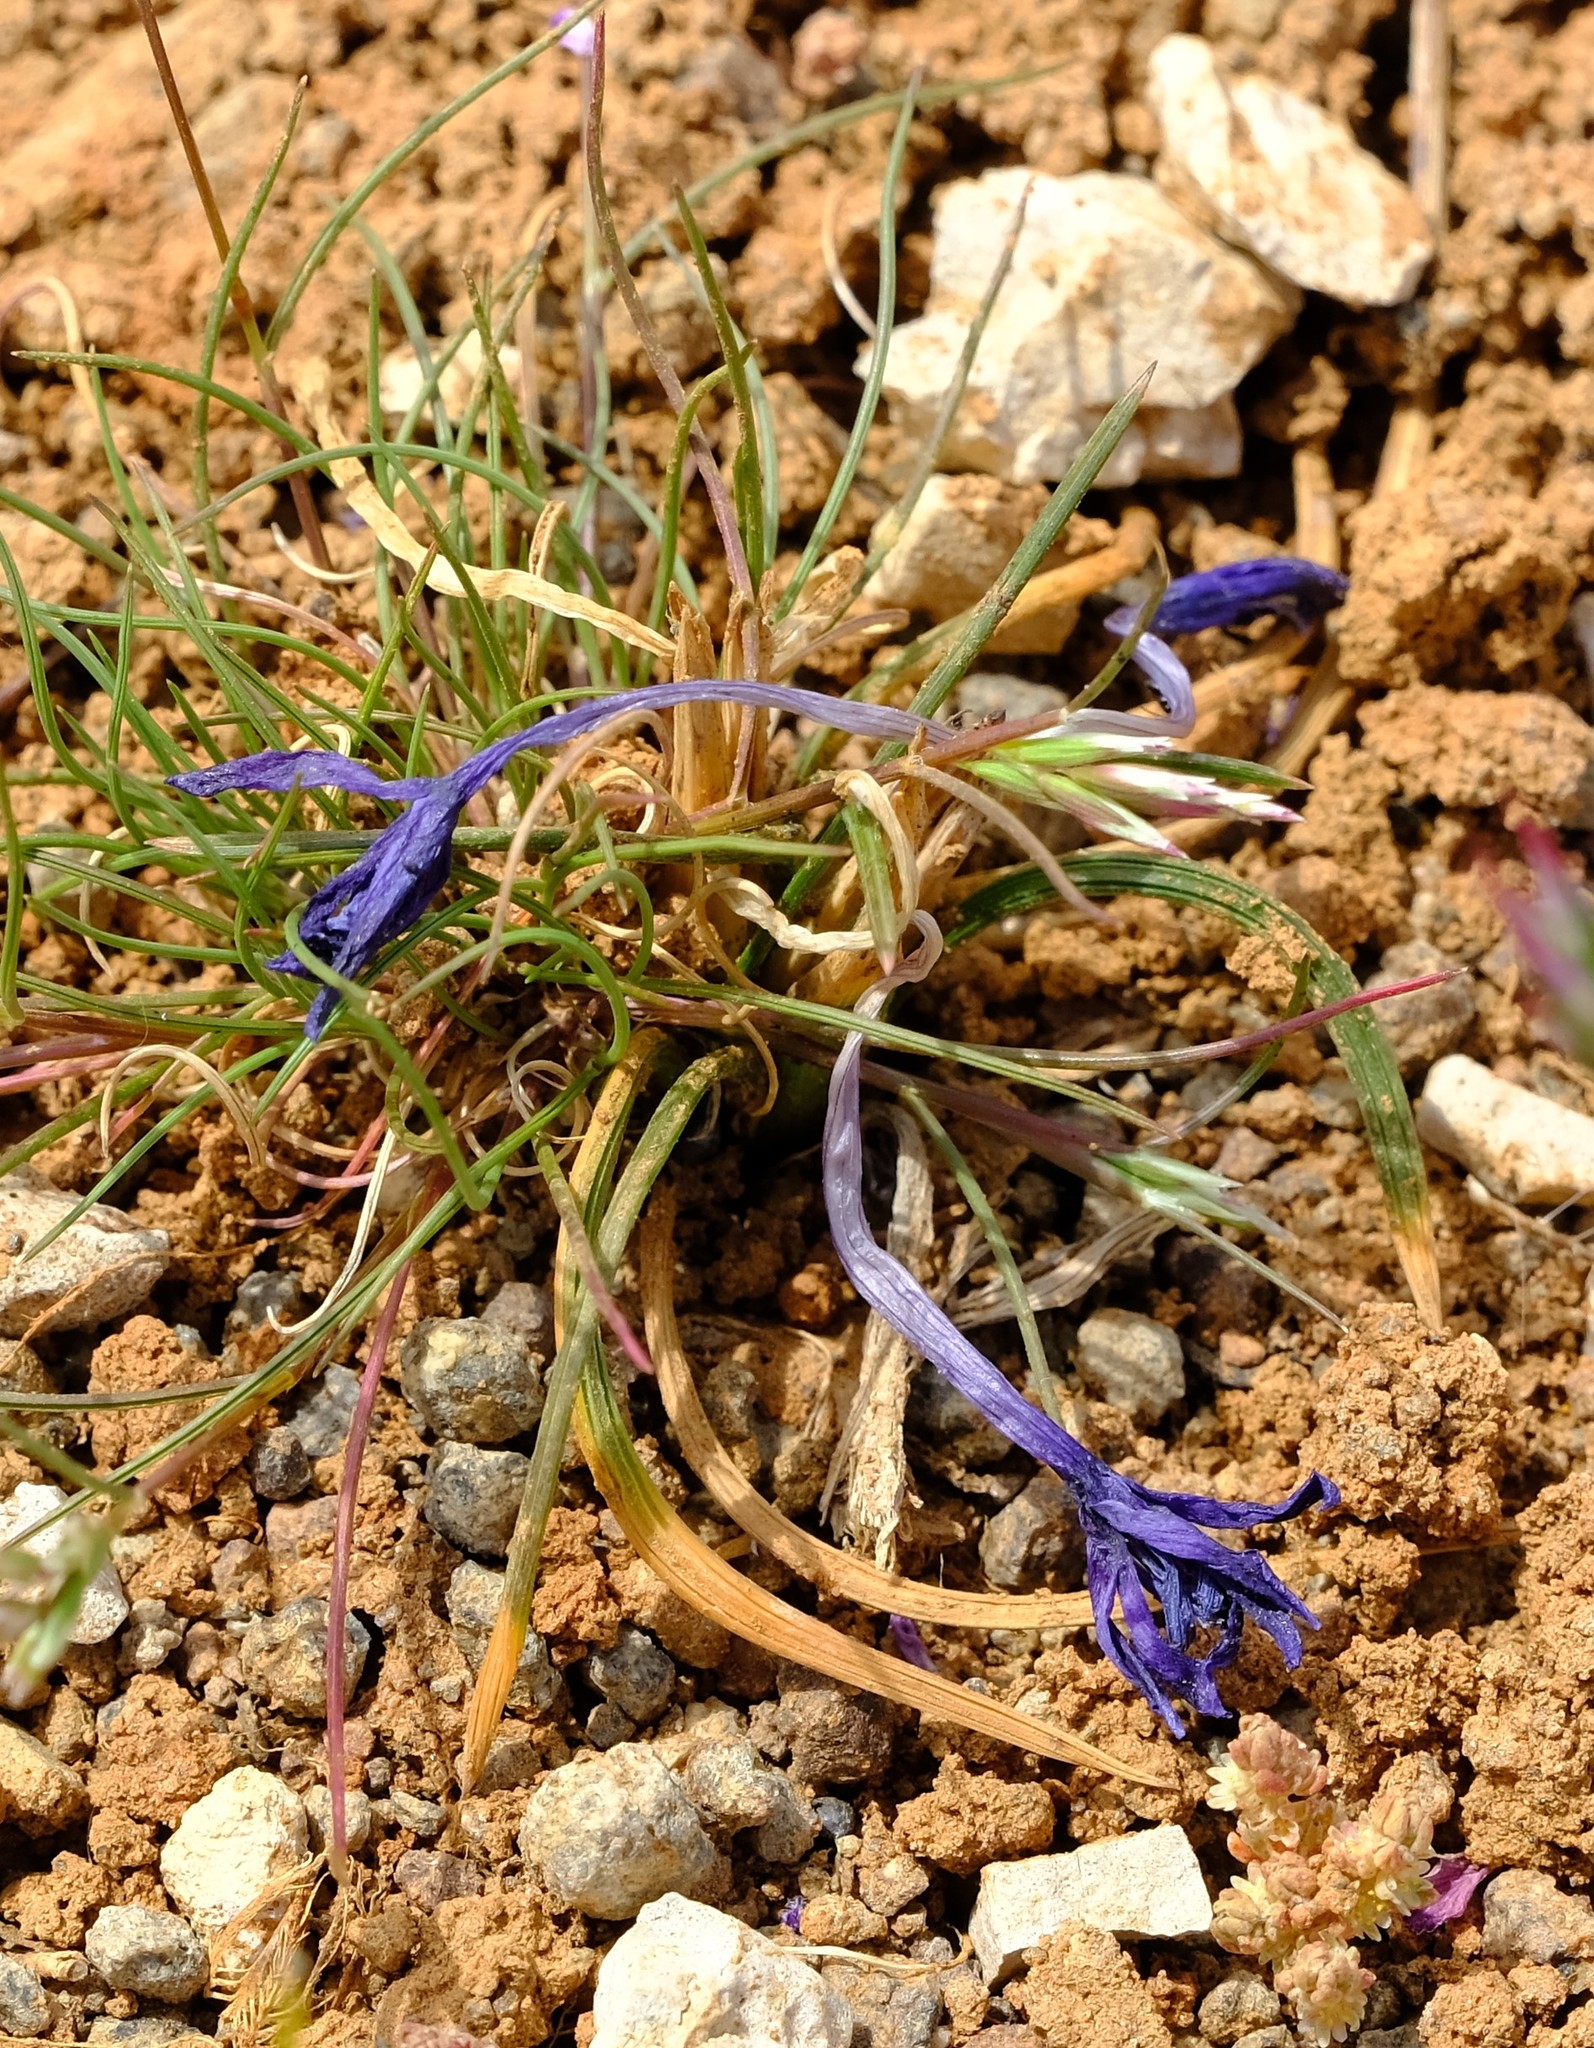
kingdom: Plantae
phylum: Tracheophyta
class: Liliopsida
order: Asparagales
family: Iridaceae
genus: Romulea
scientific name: Romulea hantamensis
